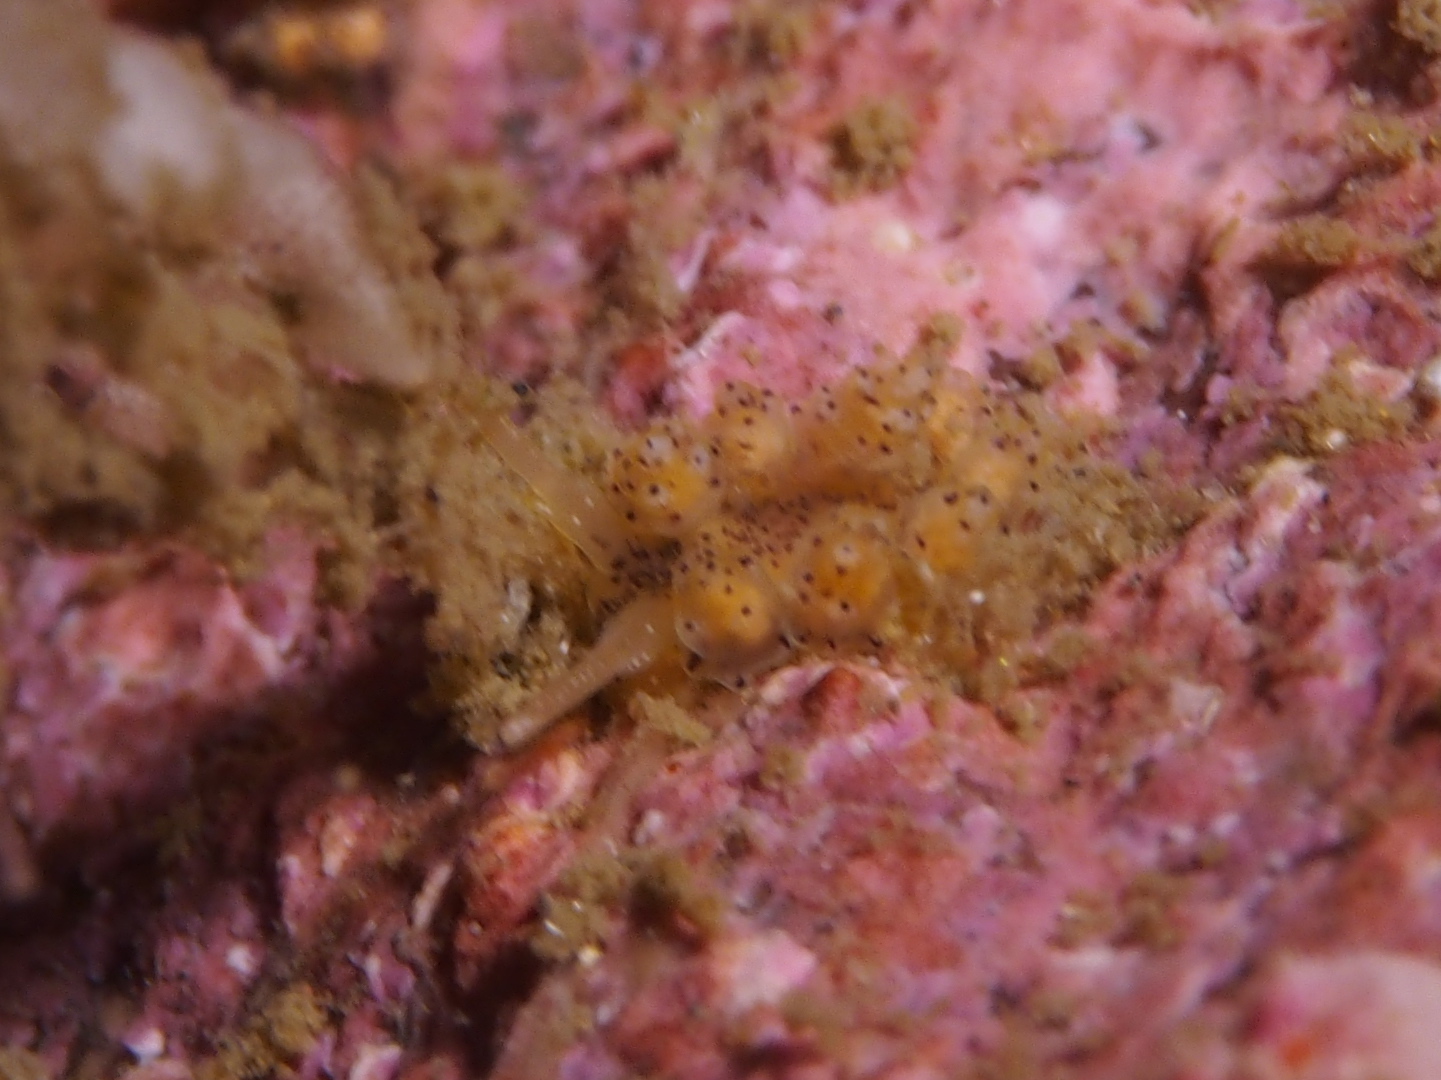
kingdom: Animalia
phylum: Mollusca
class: Gastropoda
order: Nudibranchia
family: Dotidae
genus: Doto
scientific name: Doto dunnei
